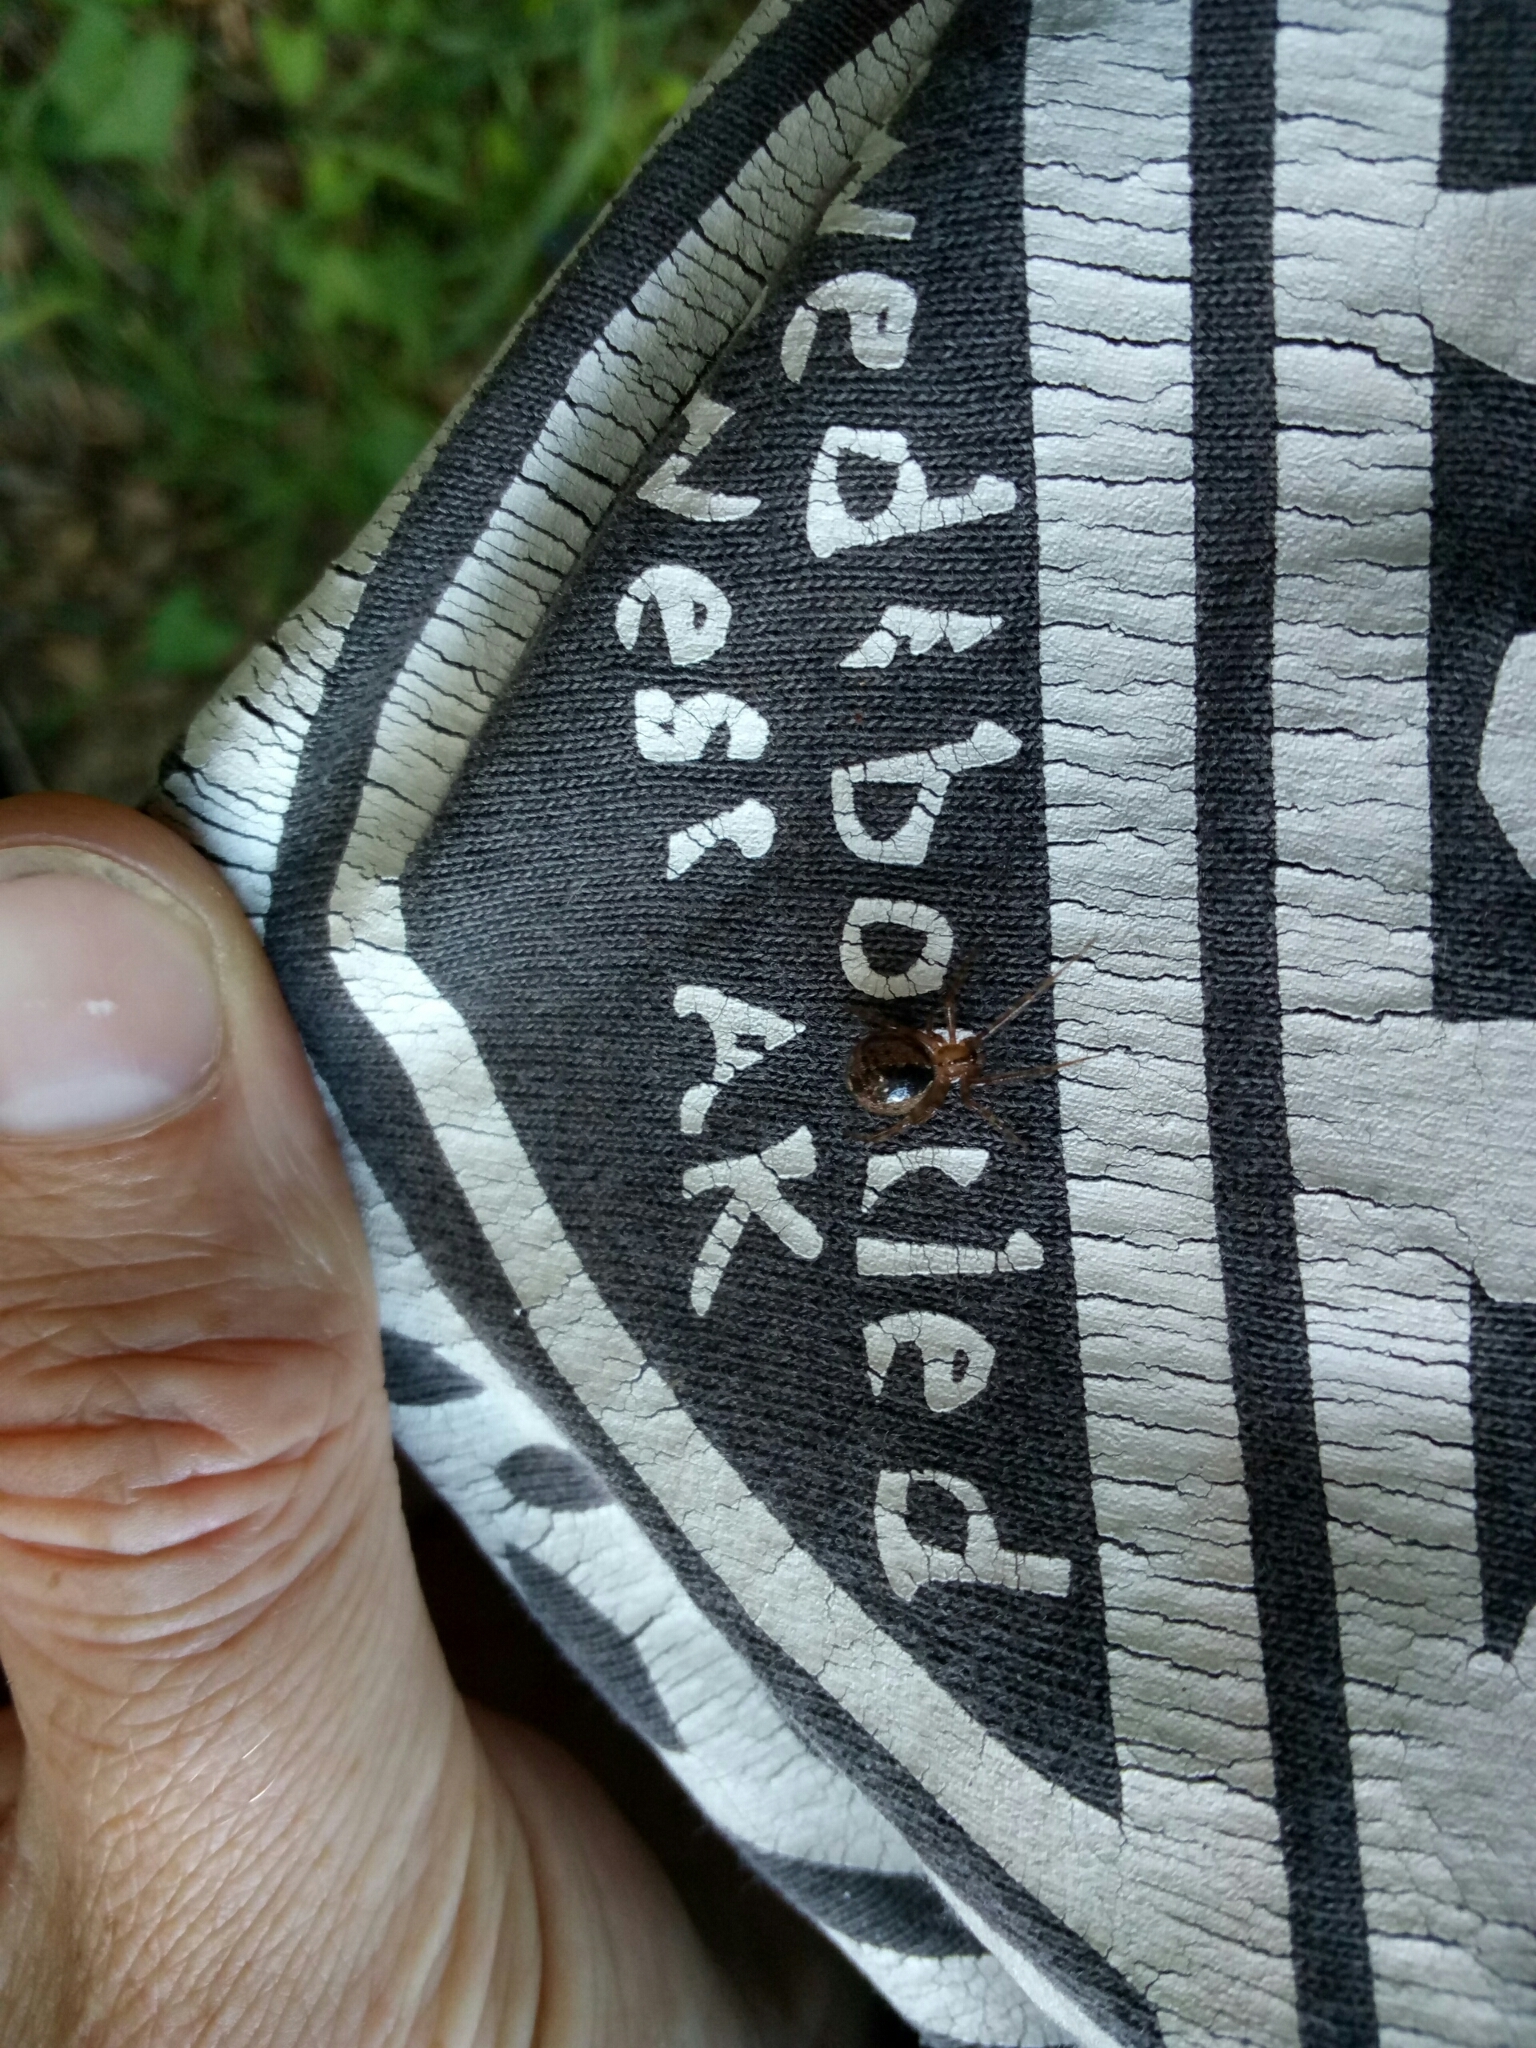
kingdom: Animalia
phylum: Arthropoda
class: Arachnida
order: Araneae
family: Theridiidae
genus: Cryptachaea
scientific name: Cryptachaea veruculata
